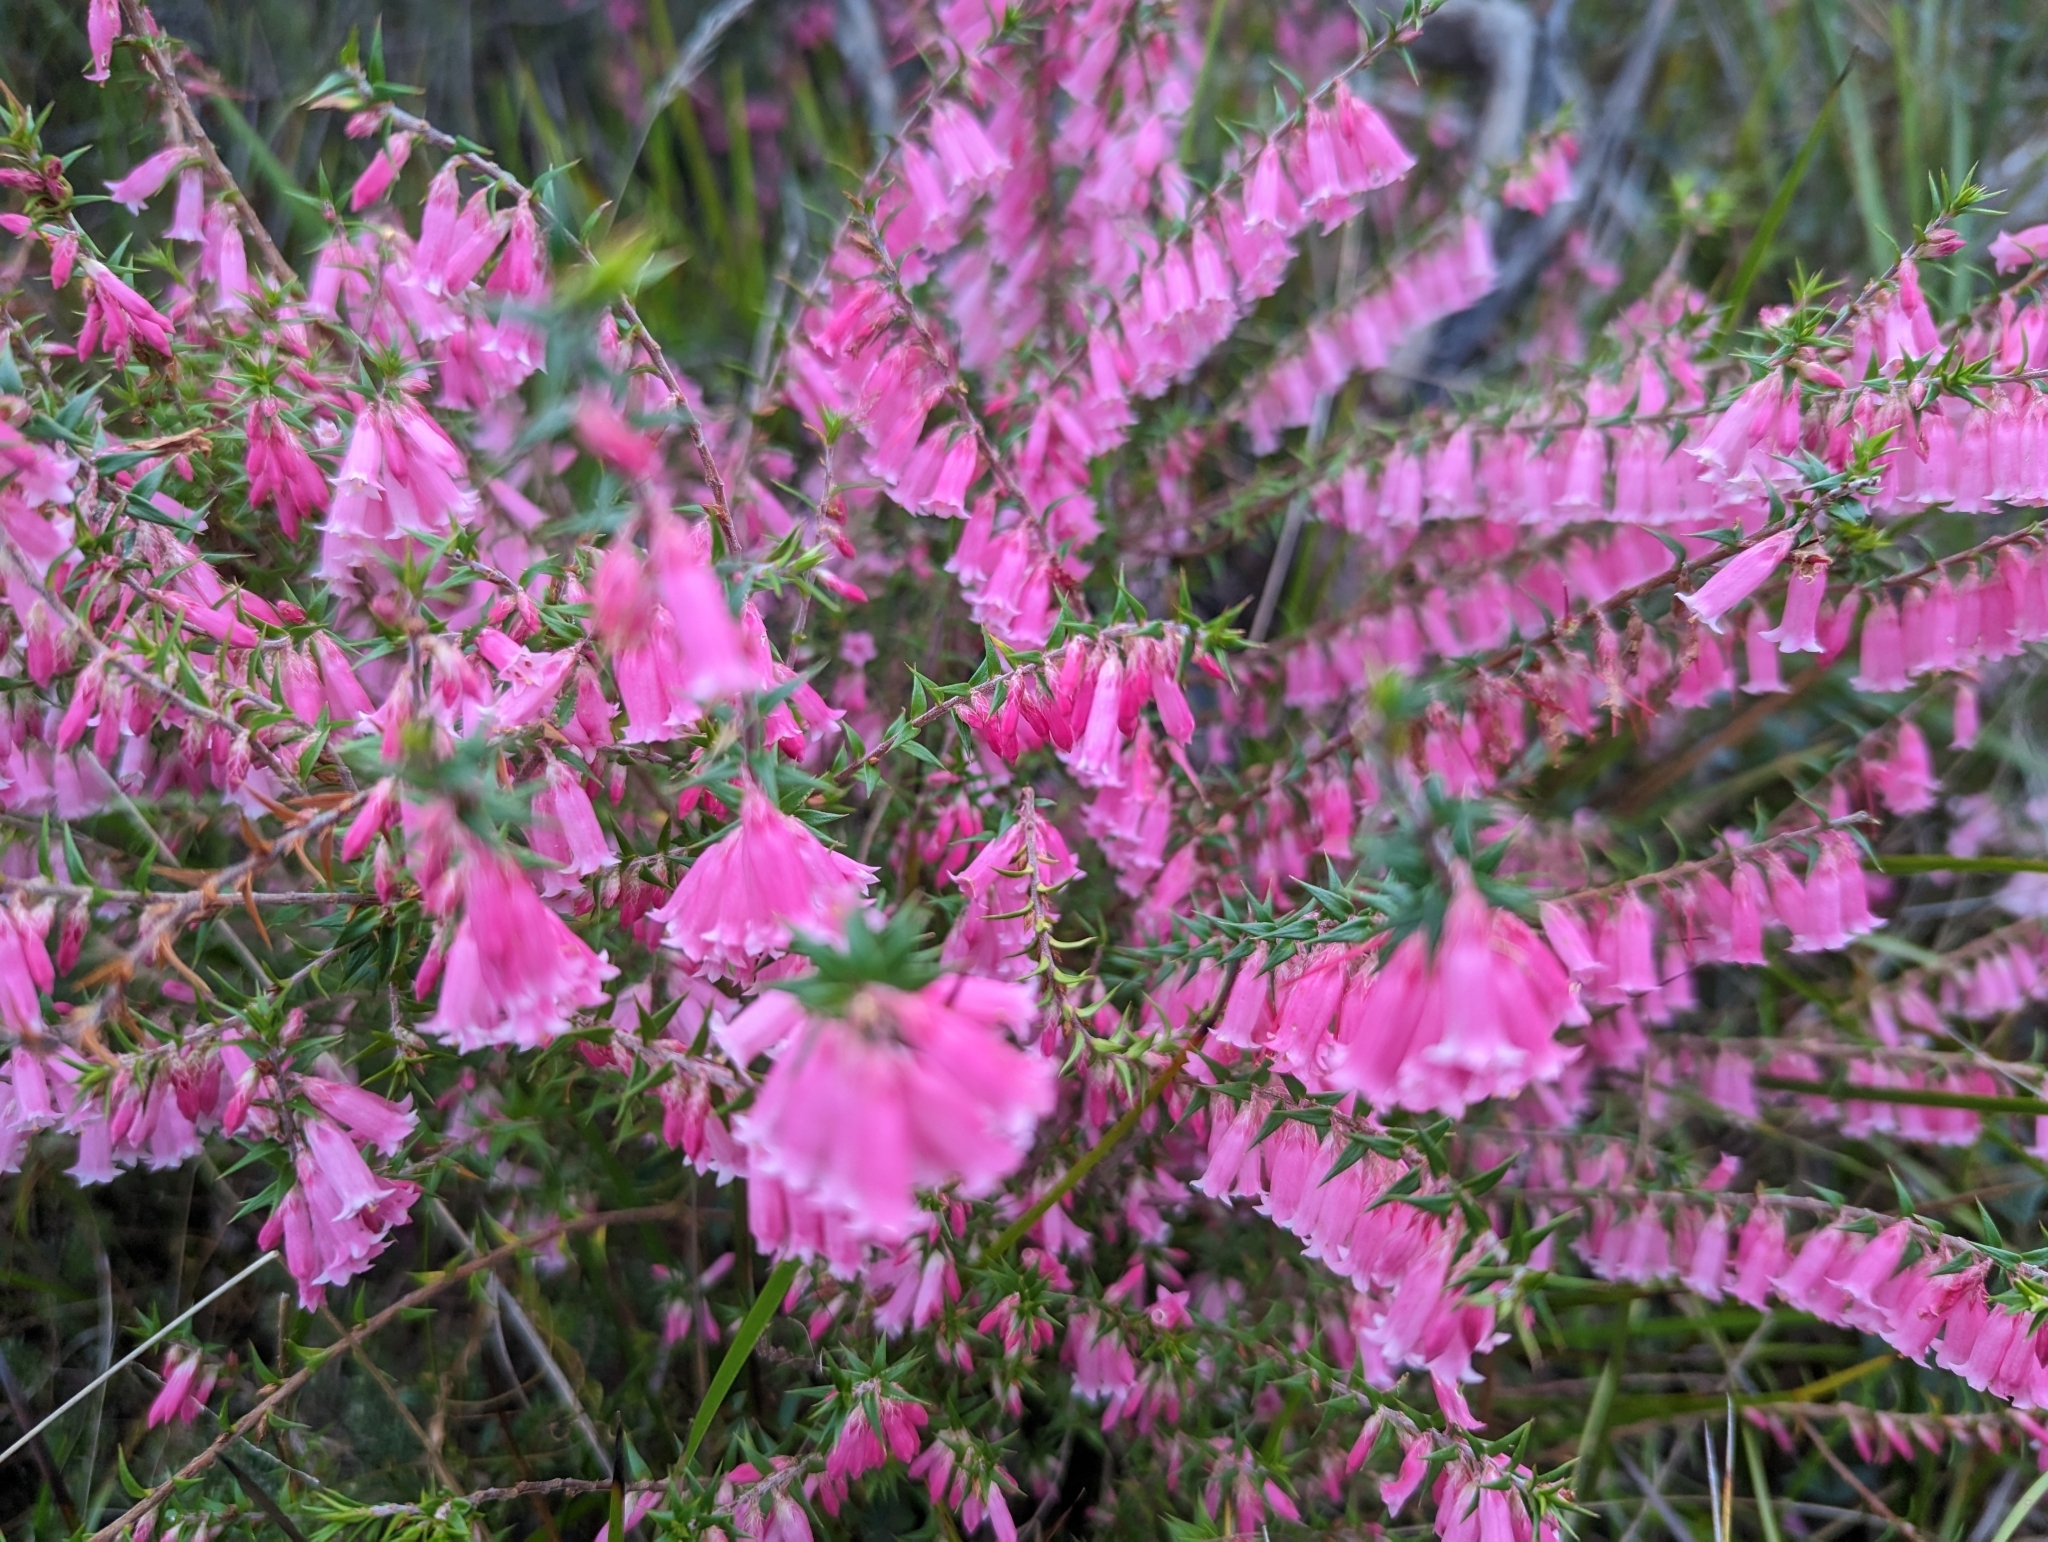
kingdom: Plantae
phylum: Tracheophyta
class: Magnoliopsida
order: Ericales
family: Ericaceae
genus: Epacris
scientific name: Epacris impressa
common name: Common-heath
